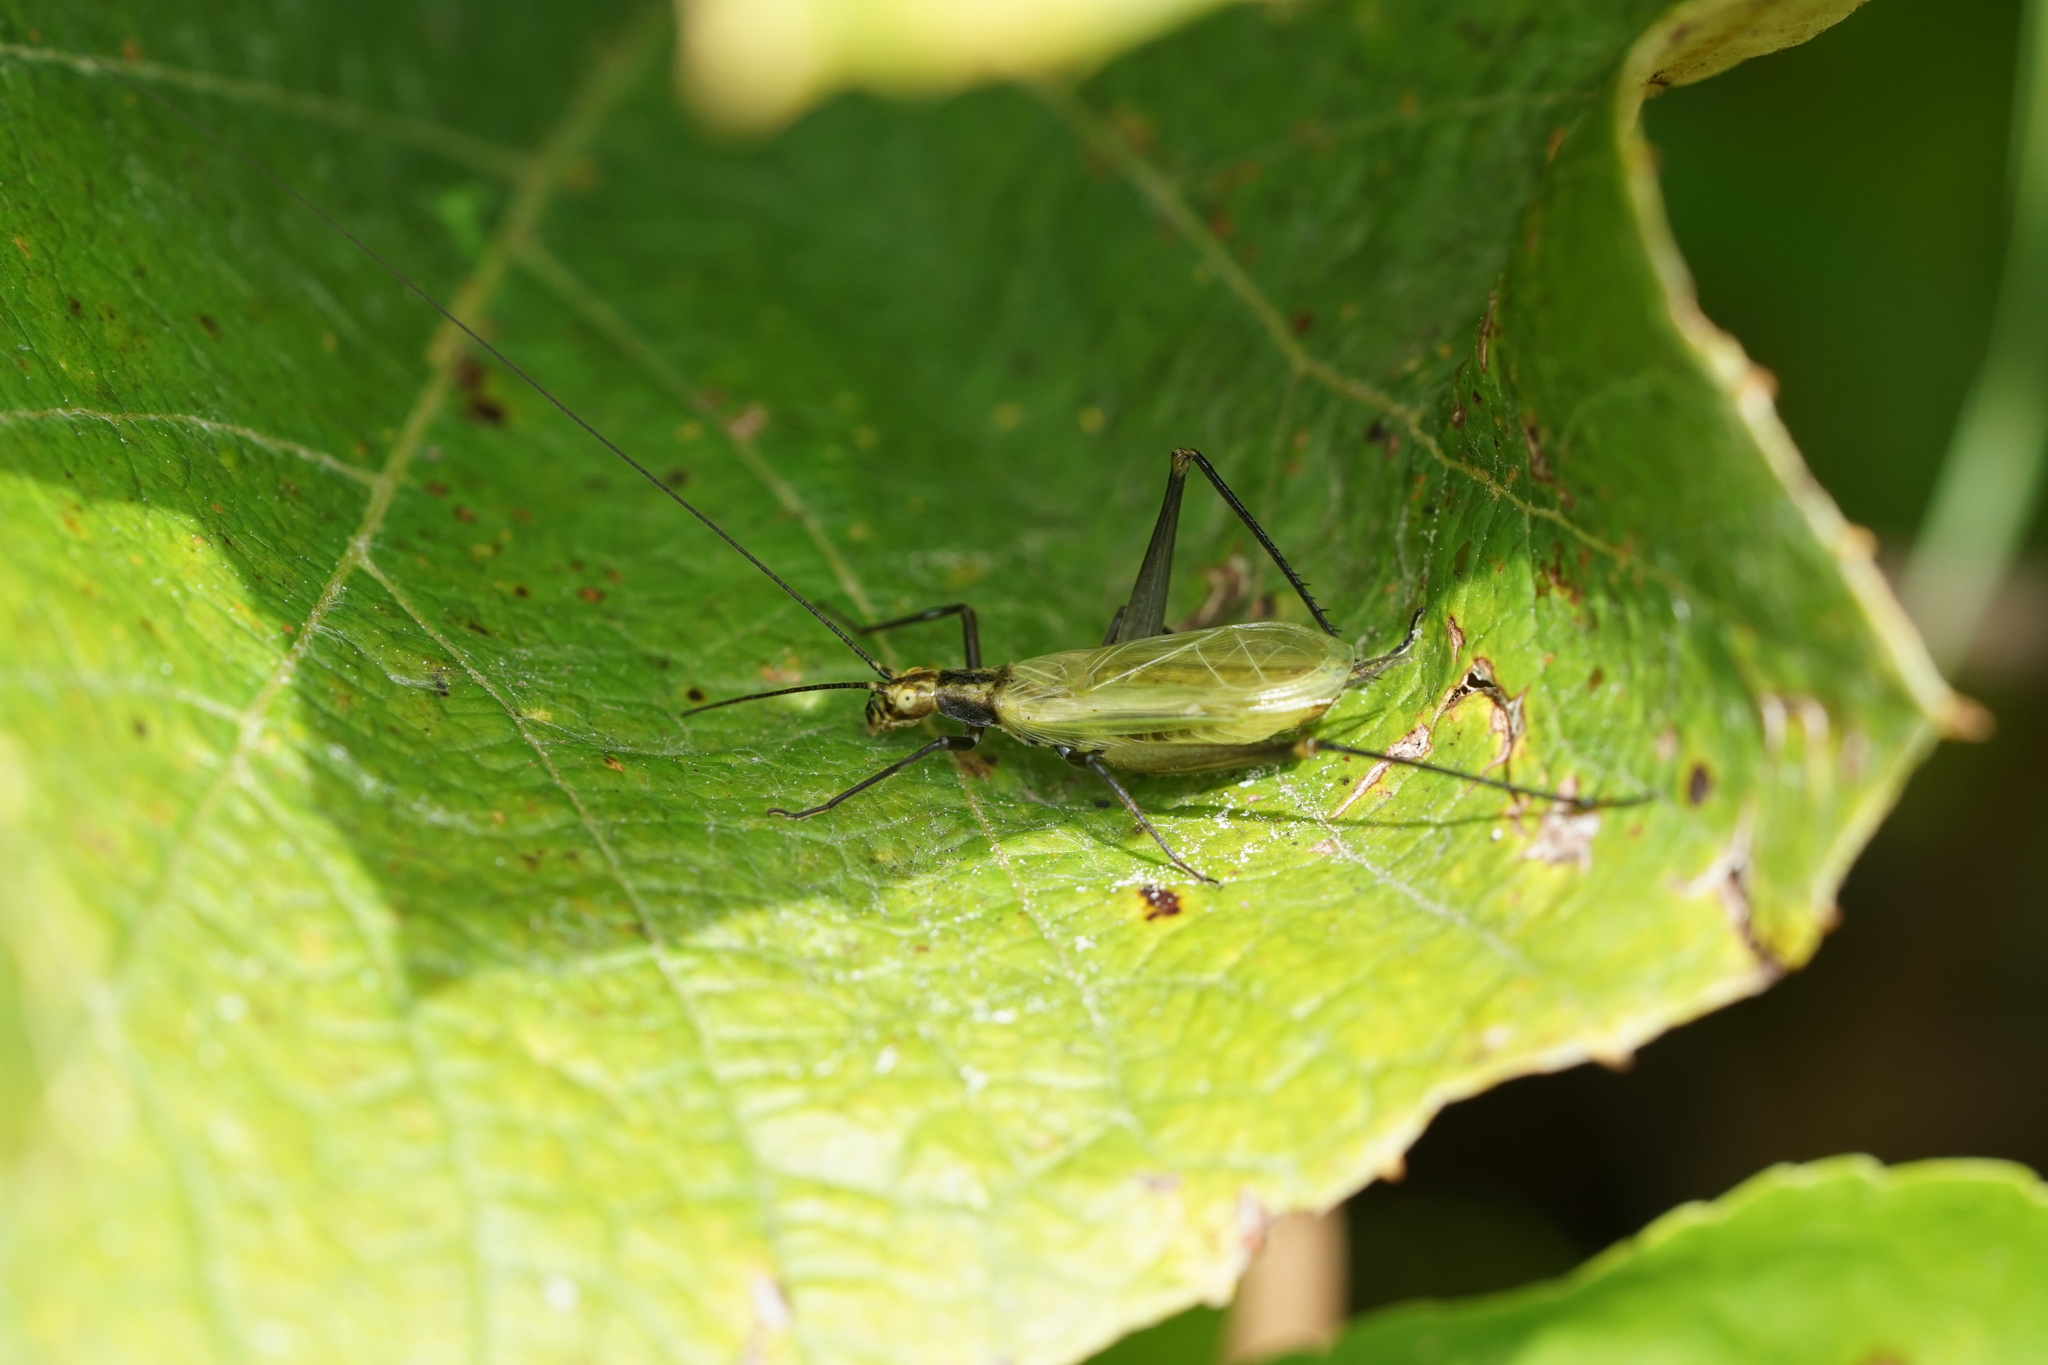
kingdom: Animalia
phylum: Arthropoda
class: Insecta
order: Orthoptera
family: Gryllidae
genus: Oecanthus
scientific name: Oecanthus nigricornis
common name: Black-horned tree cricket
